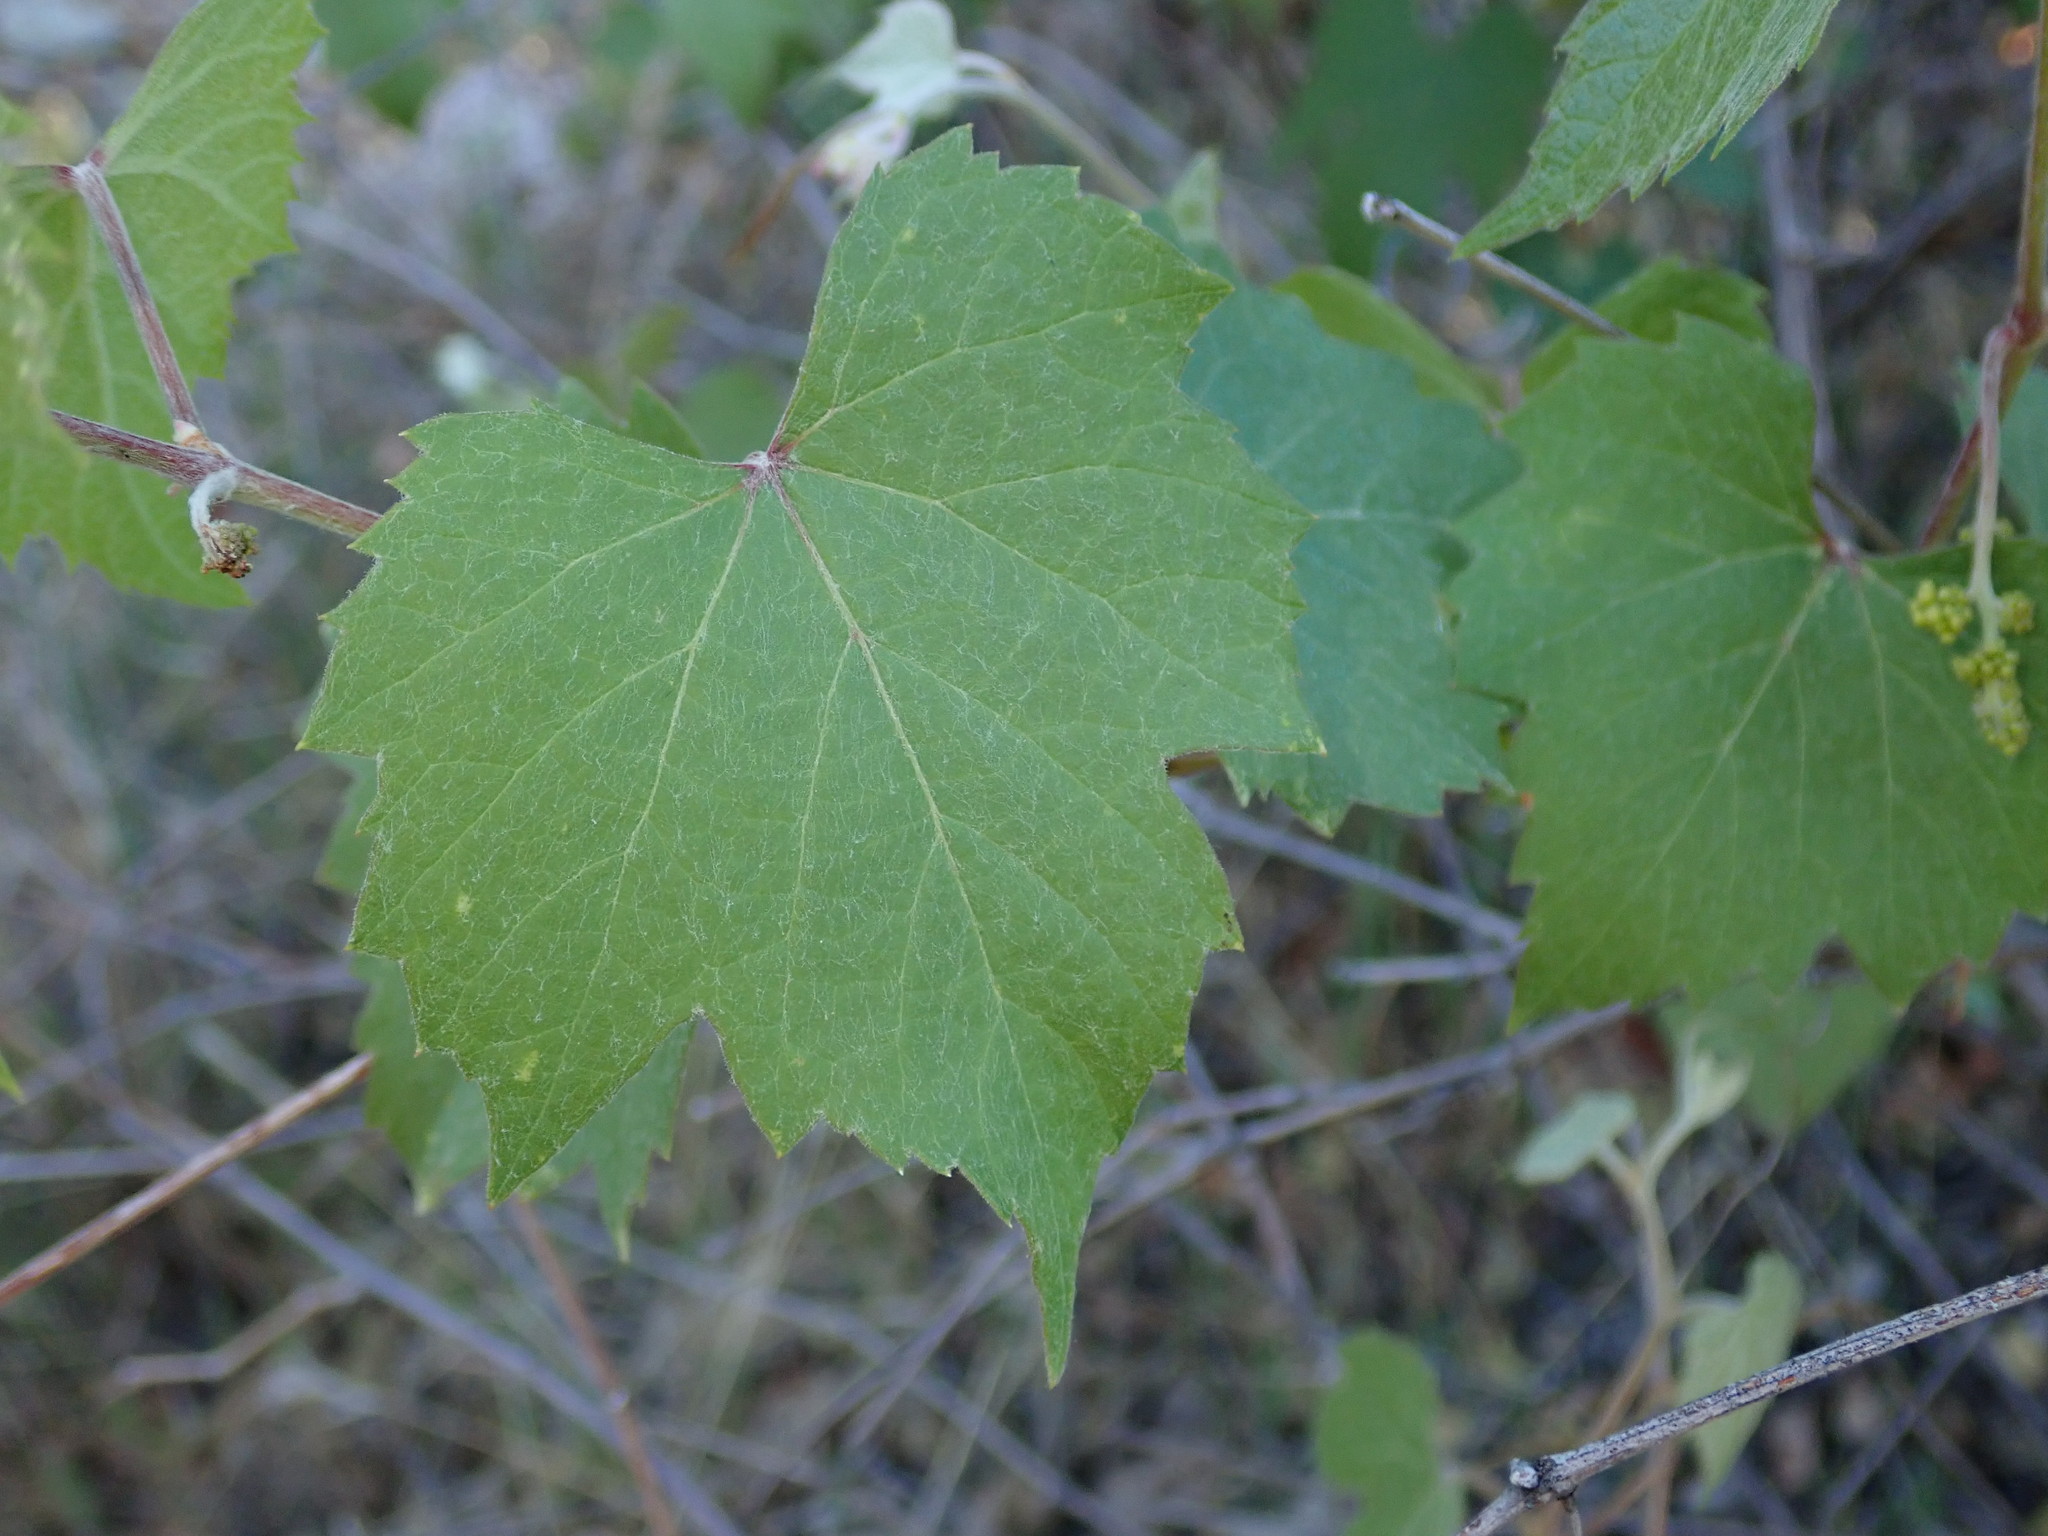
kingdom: Plantae
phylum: Tracheophyta
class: Magnoliopsida
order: Vitales
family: Vitaceae
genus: Vitis
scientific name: Vitis arizonica
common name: Canyon grape
